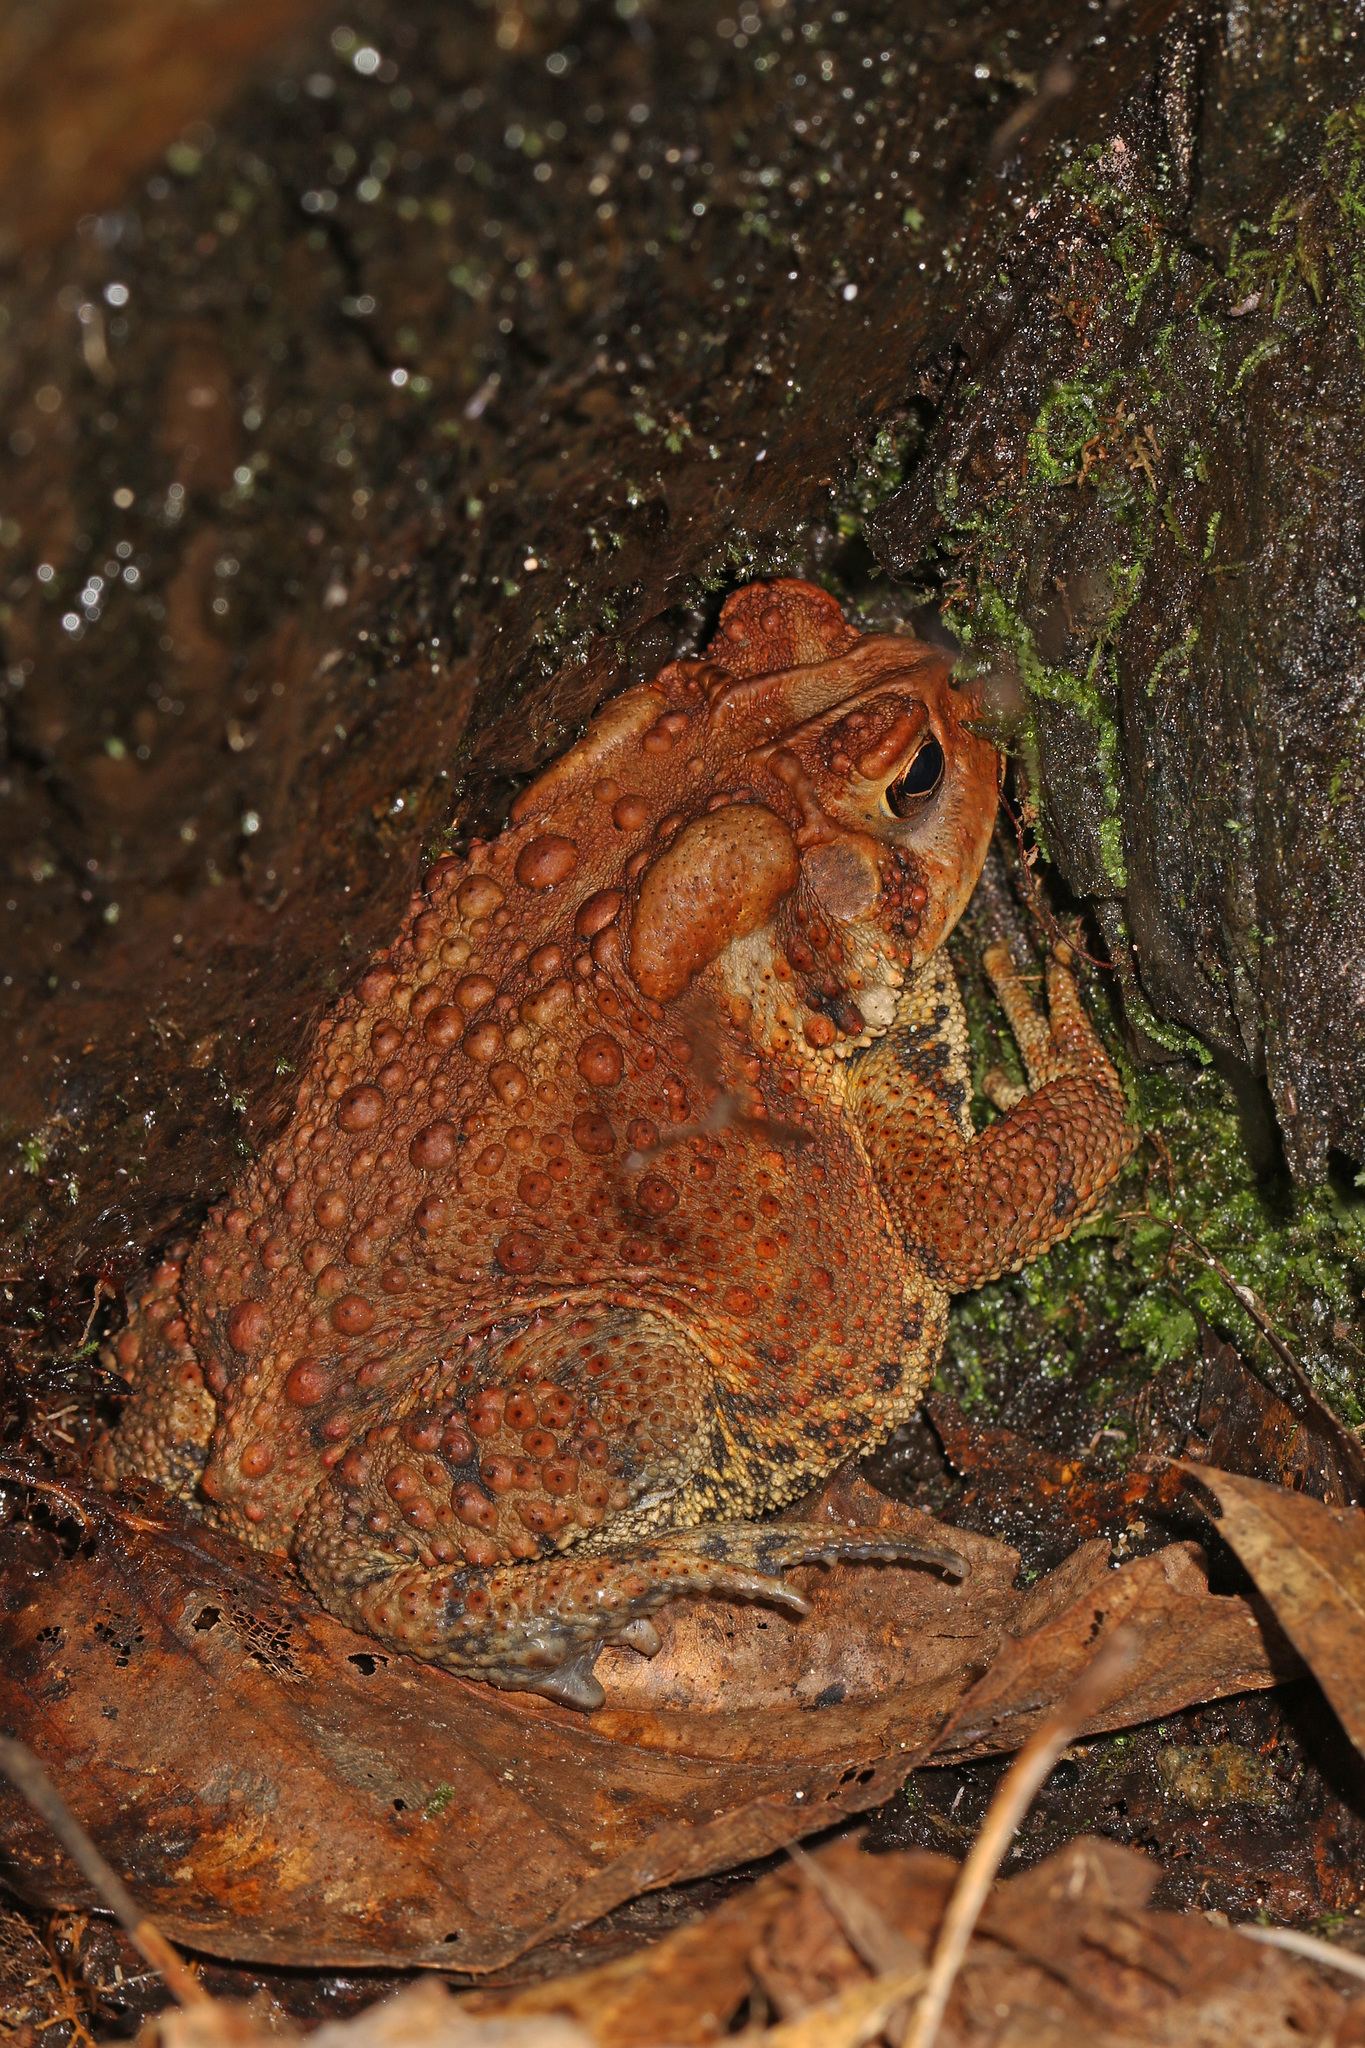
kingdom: Animalia
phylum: Chordata
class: Amphibia
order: Anura
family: Bufonidae
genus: Anaxyrus
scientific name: Anaxyrus americanus
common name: American toad
